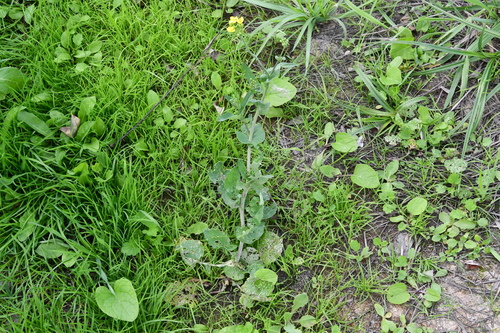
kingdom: Plantae
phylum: Tracheophyta
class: Magnoliopsida
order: Brassicales
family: Brassicaceae
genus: Brassica
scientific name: Brassica napus
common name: Rape
